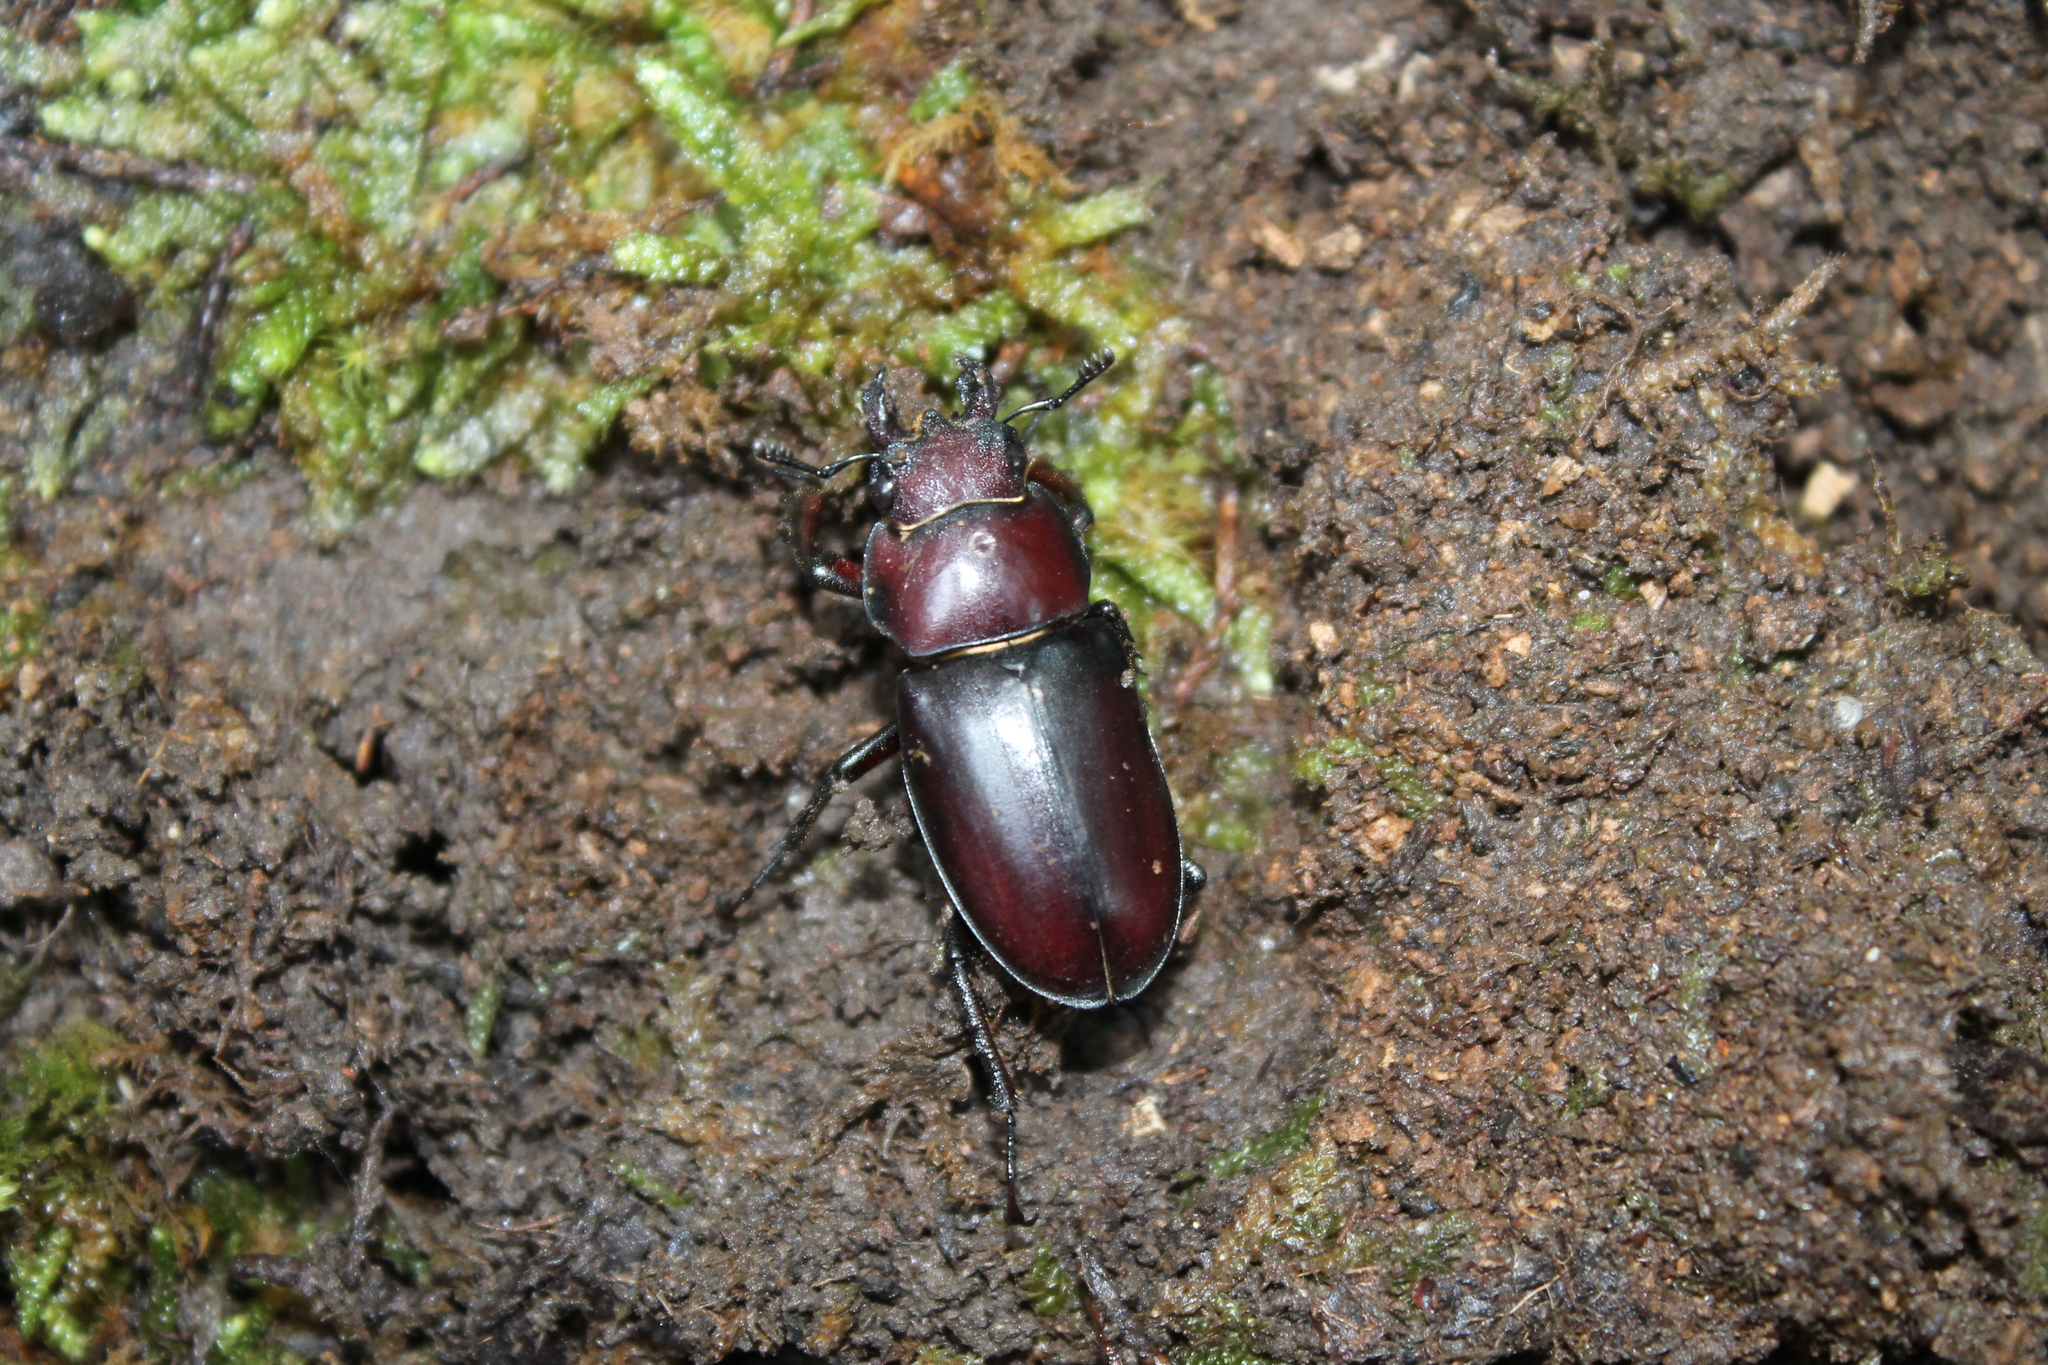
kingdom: Animalia
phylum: Arthropoda
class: Insecta
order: Coleoptera
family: Lucanidae
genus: Lucanus
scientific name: Lucanus elaphus
